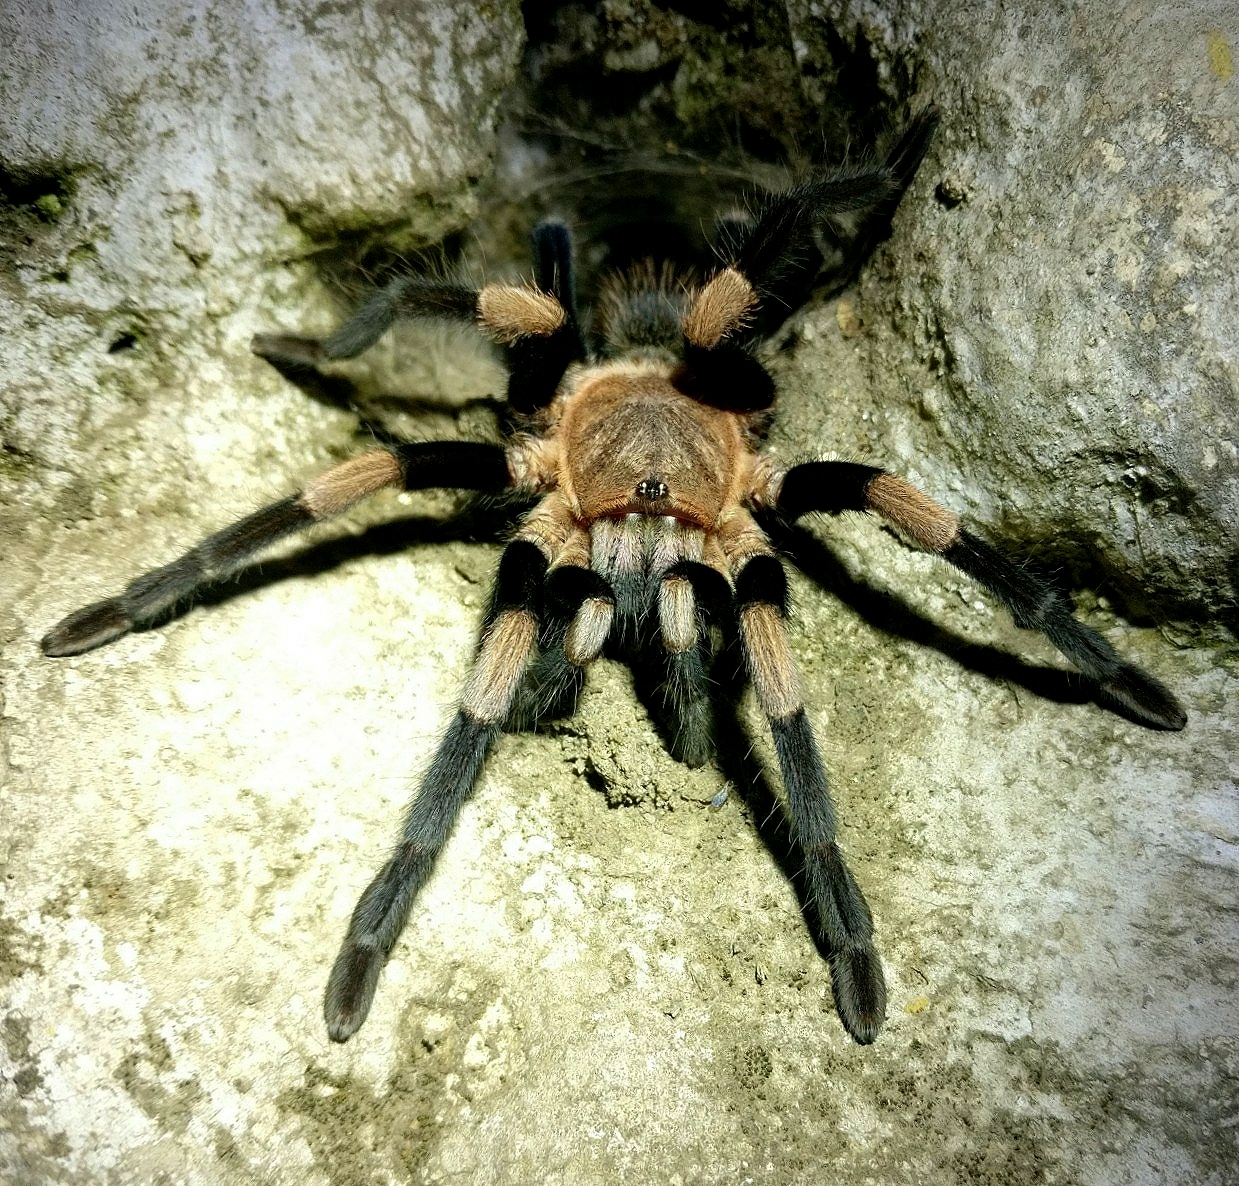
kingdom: Animalia
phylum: Arthropoda
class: Arachnida
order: Araneae
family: Theraphosidae
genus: Haplocosmia
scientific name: Haplocosmia himalayana
